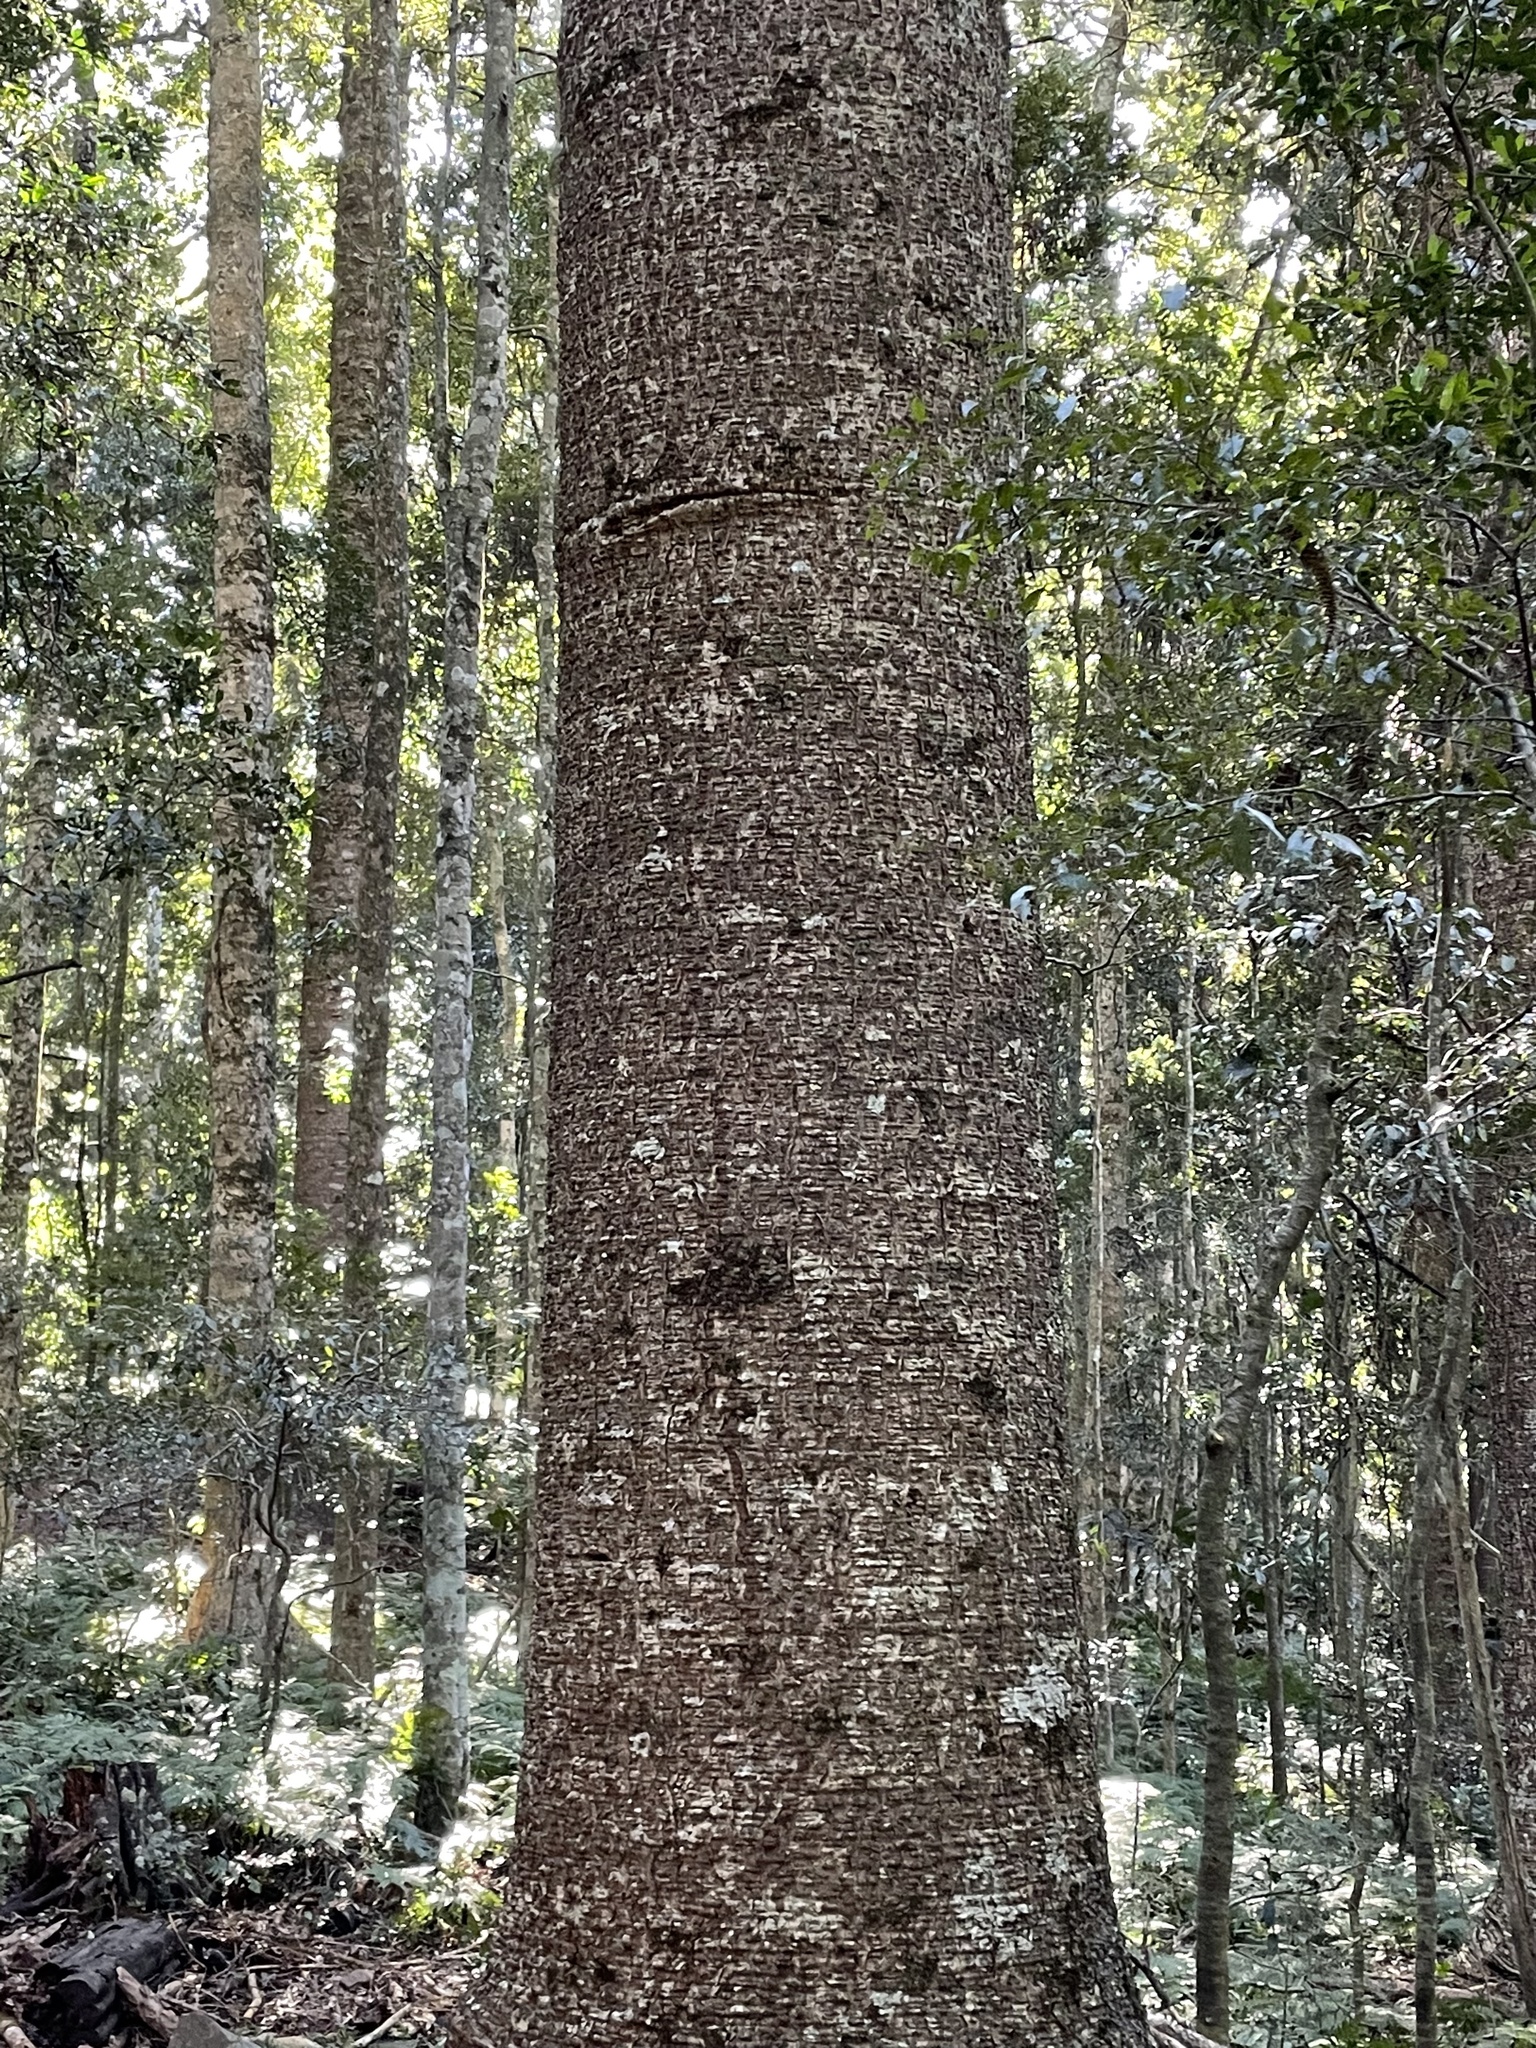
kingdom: Plantae
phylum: Tracheophyta
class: Pinopsida
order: Pinales
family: Araucariaceae
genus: Araucaria
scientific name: Araucaria bidwillii
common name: Moreton-bay-pine
